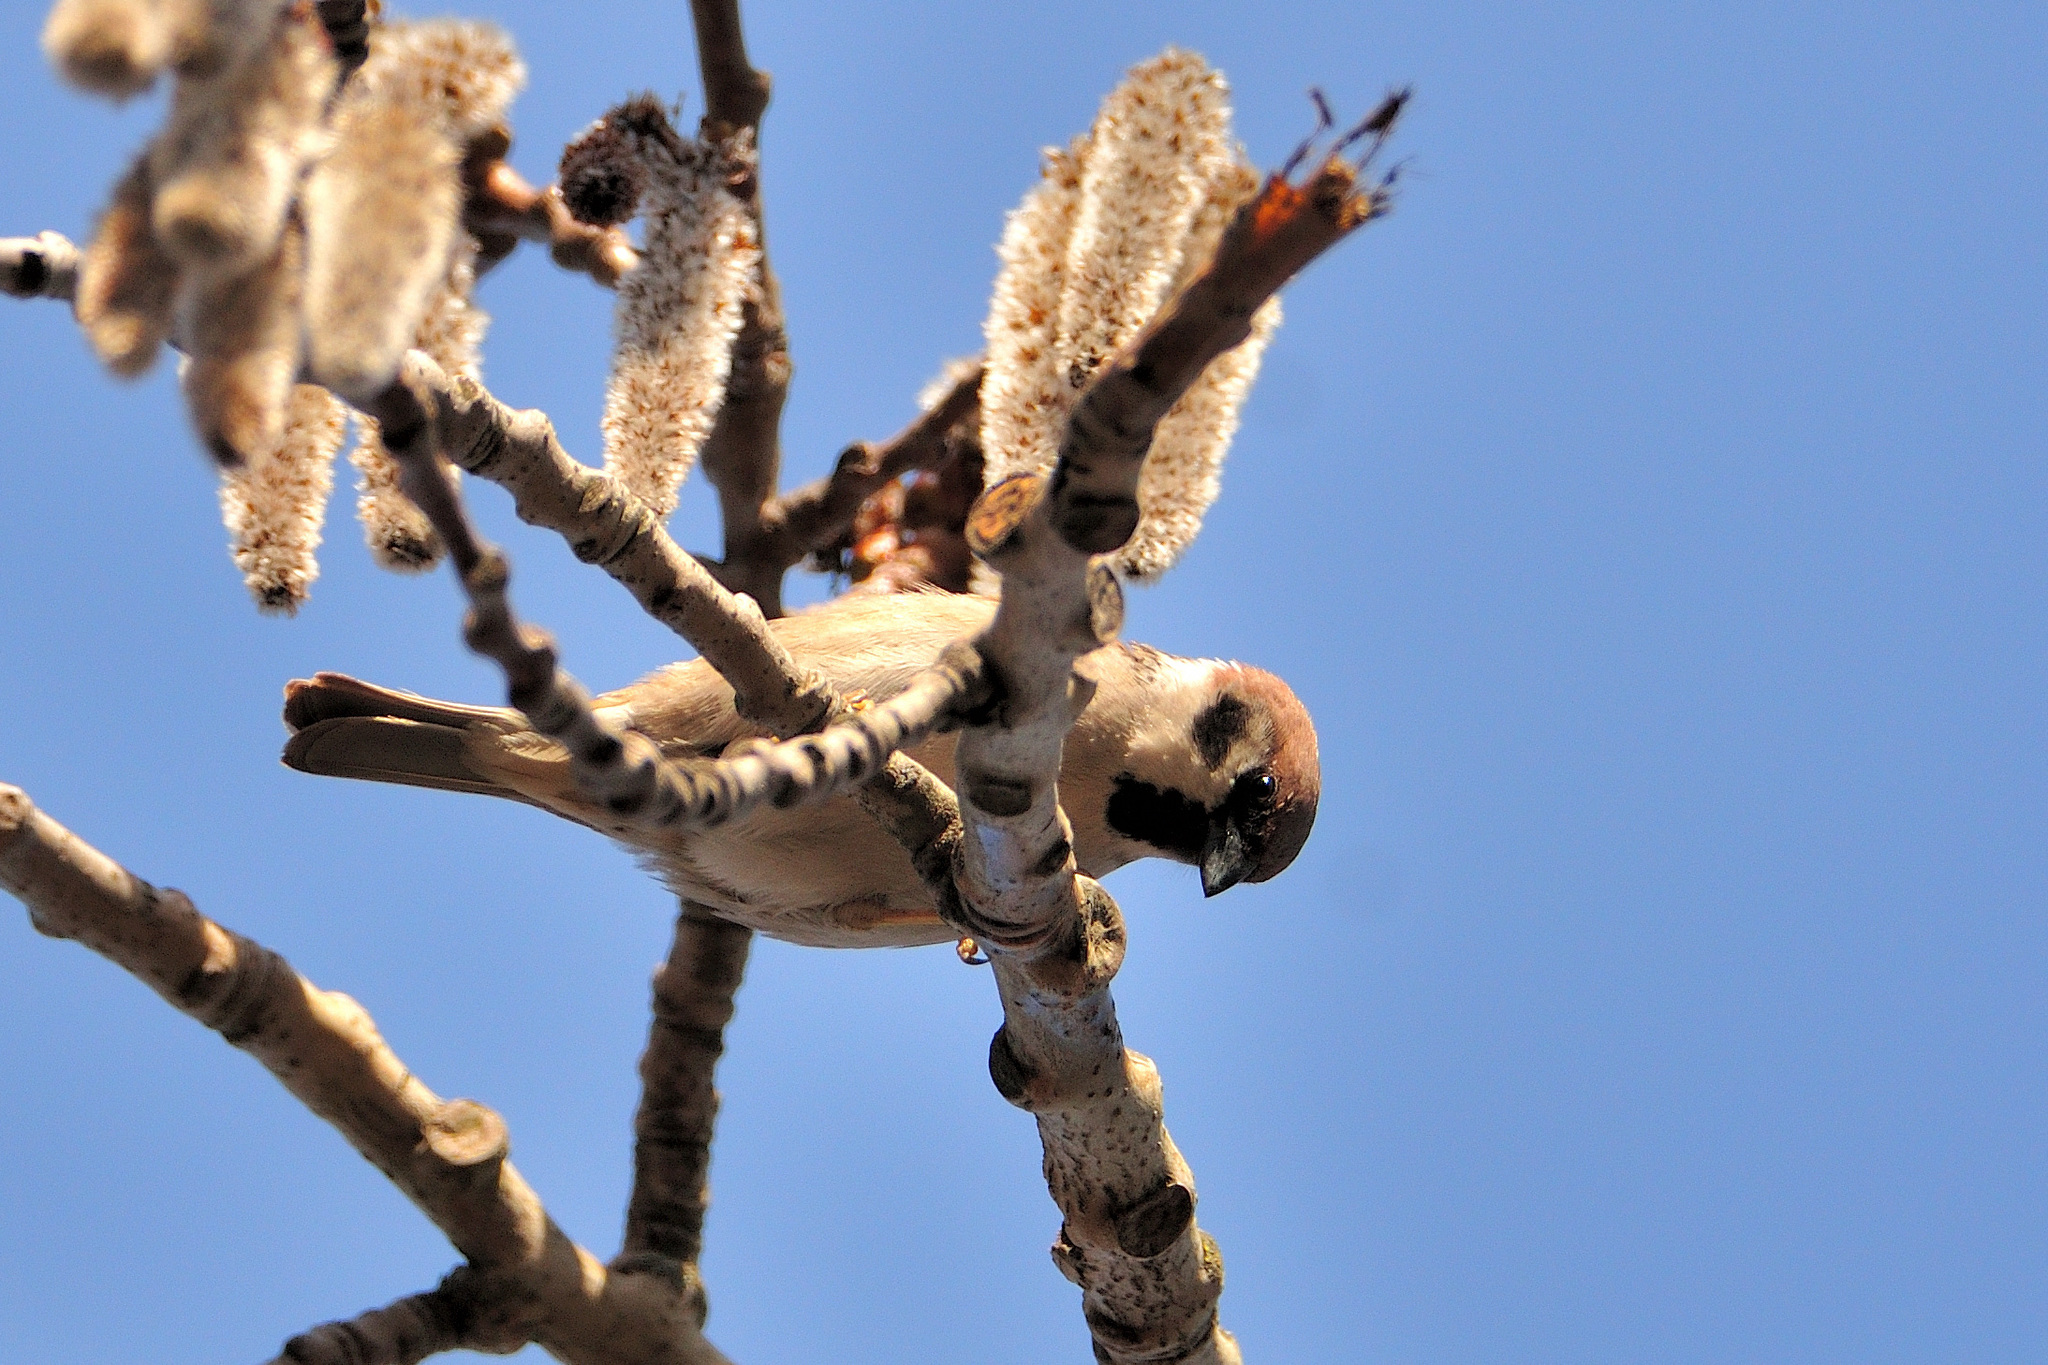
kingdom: Animalia
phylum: Chordata
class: Aves
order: Passeriformes
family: Passeridae
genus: Passer
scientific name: Passer montanus
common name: Eurasian tree sparrow
